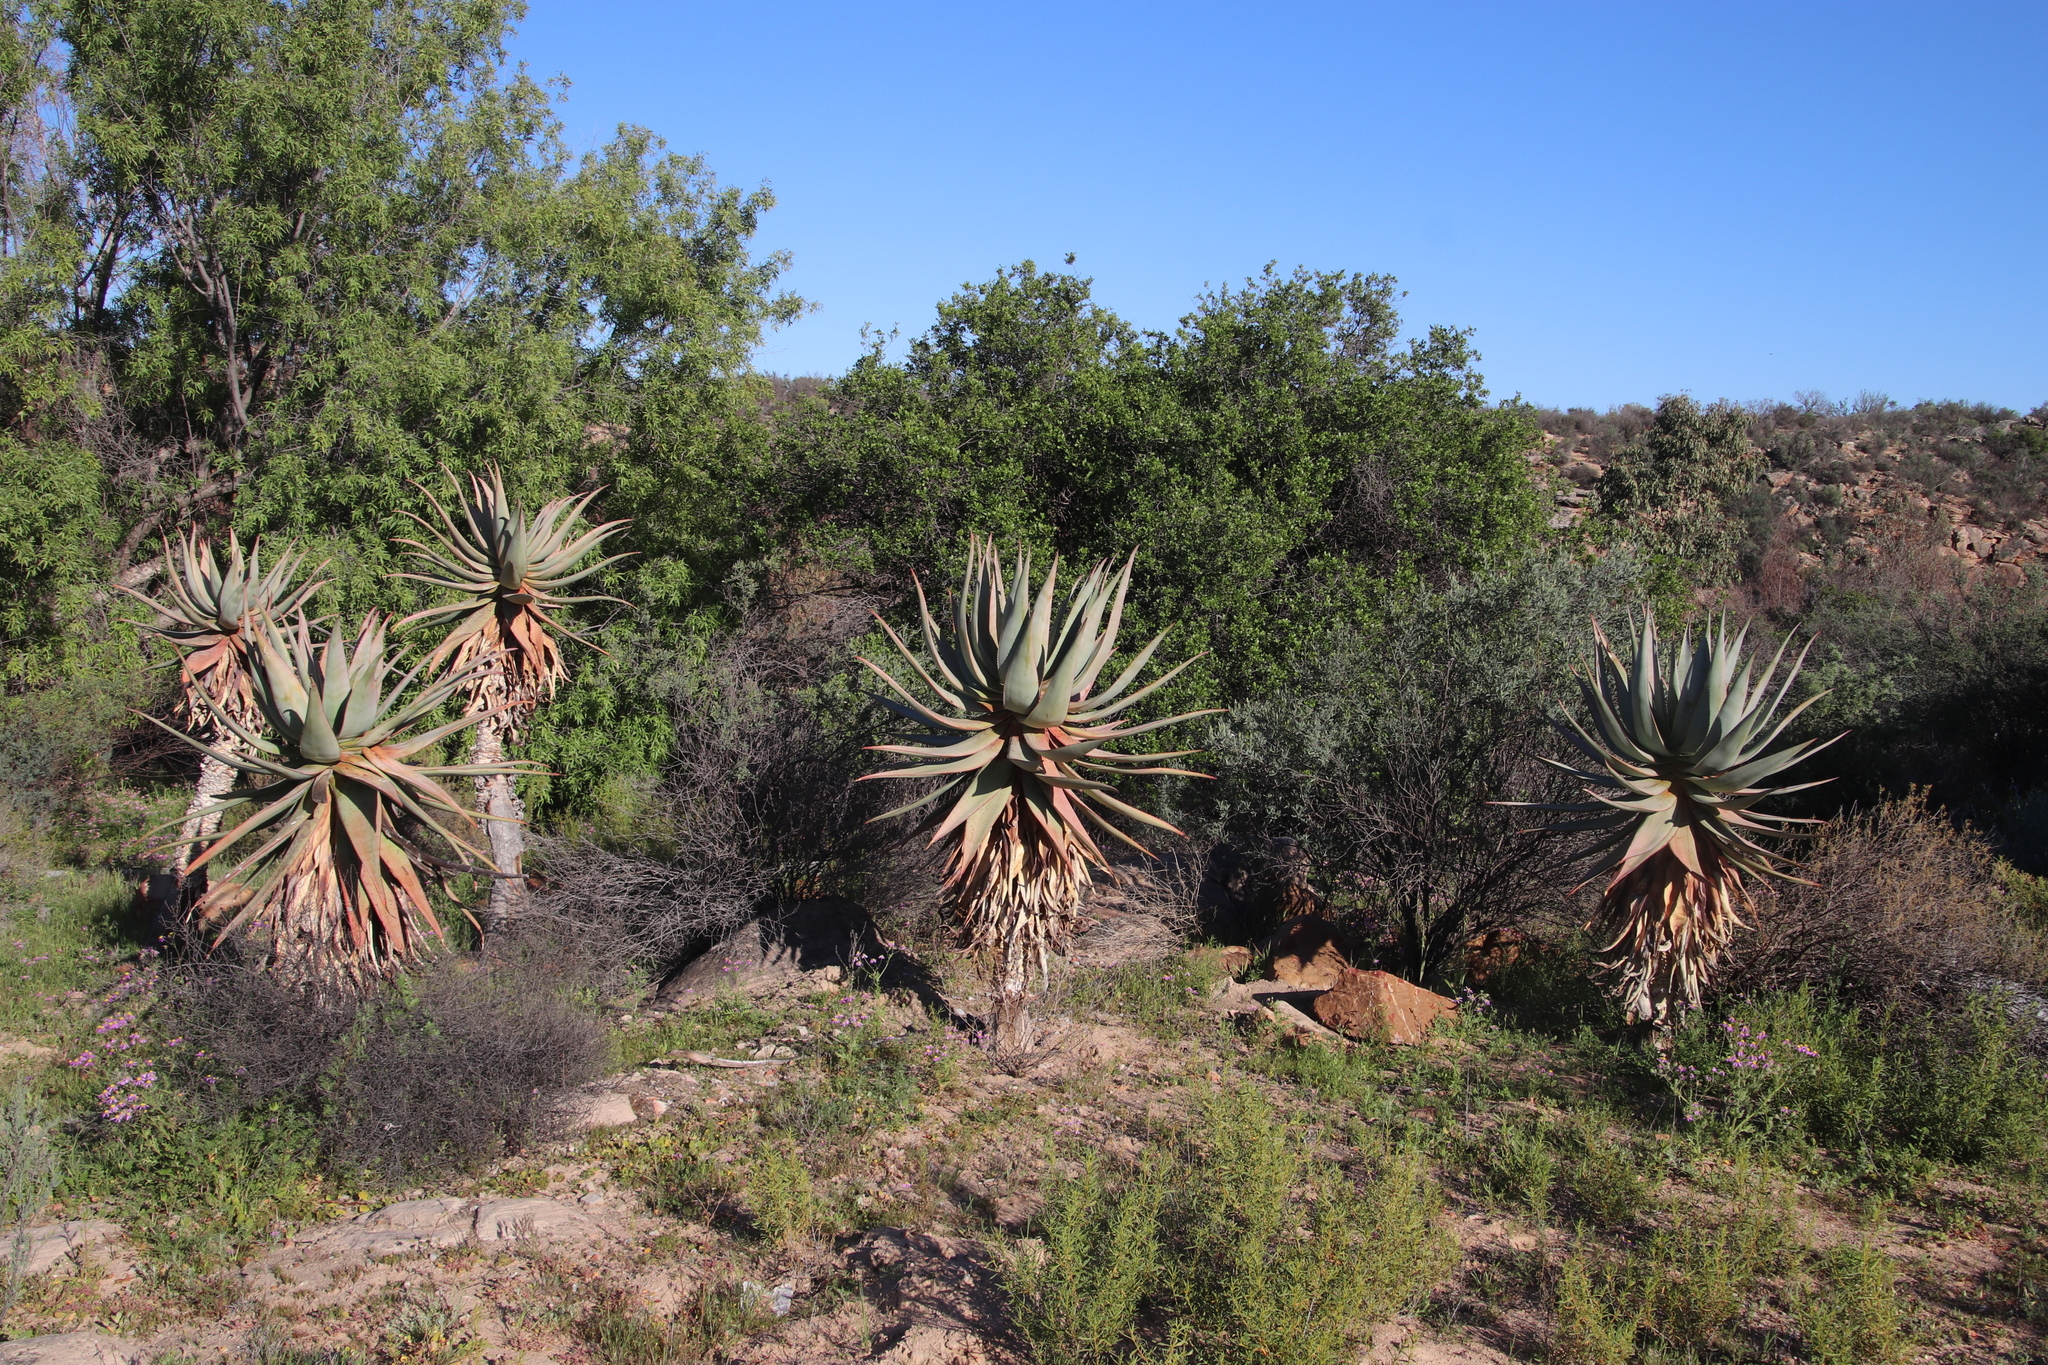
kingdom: Plantae
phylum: Tracheophyta
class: Liliopsida
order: Asparagales
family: Asphodelaceae
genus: Aloe
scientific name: Aloe comosa
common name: Clanwilliam aloe
